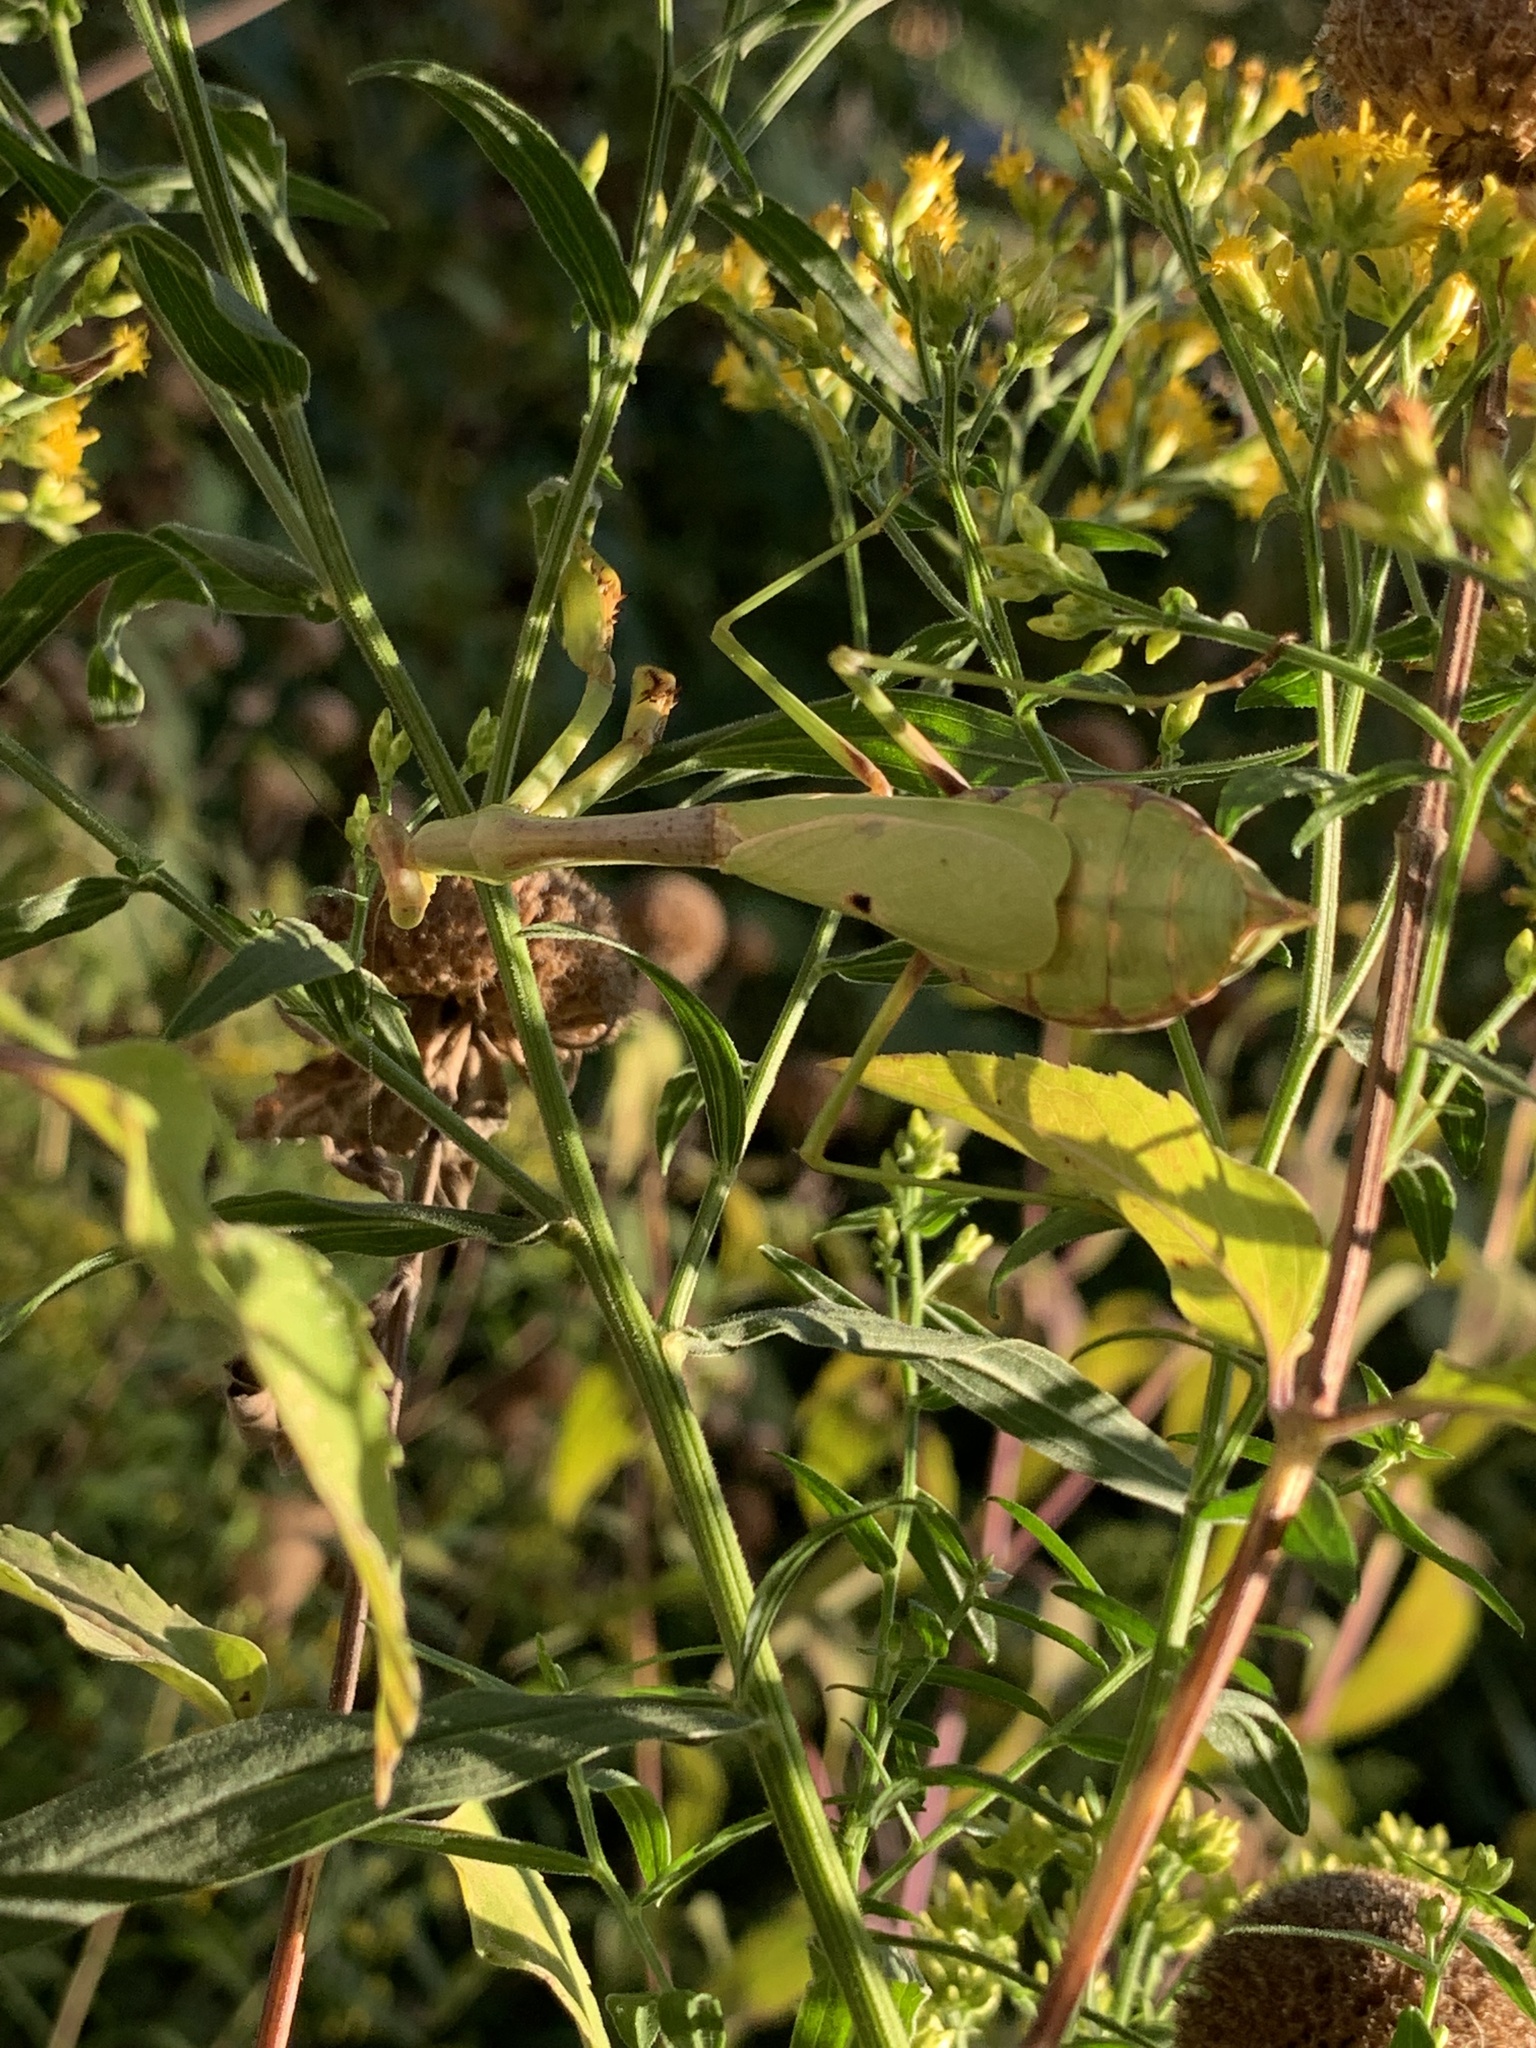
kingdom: Animalia
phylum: Arthropoda
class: Insecta
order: Mantodea
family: Mantidae
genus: Stagmomantis
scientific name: Stagmomantis carolina
